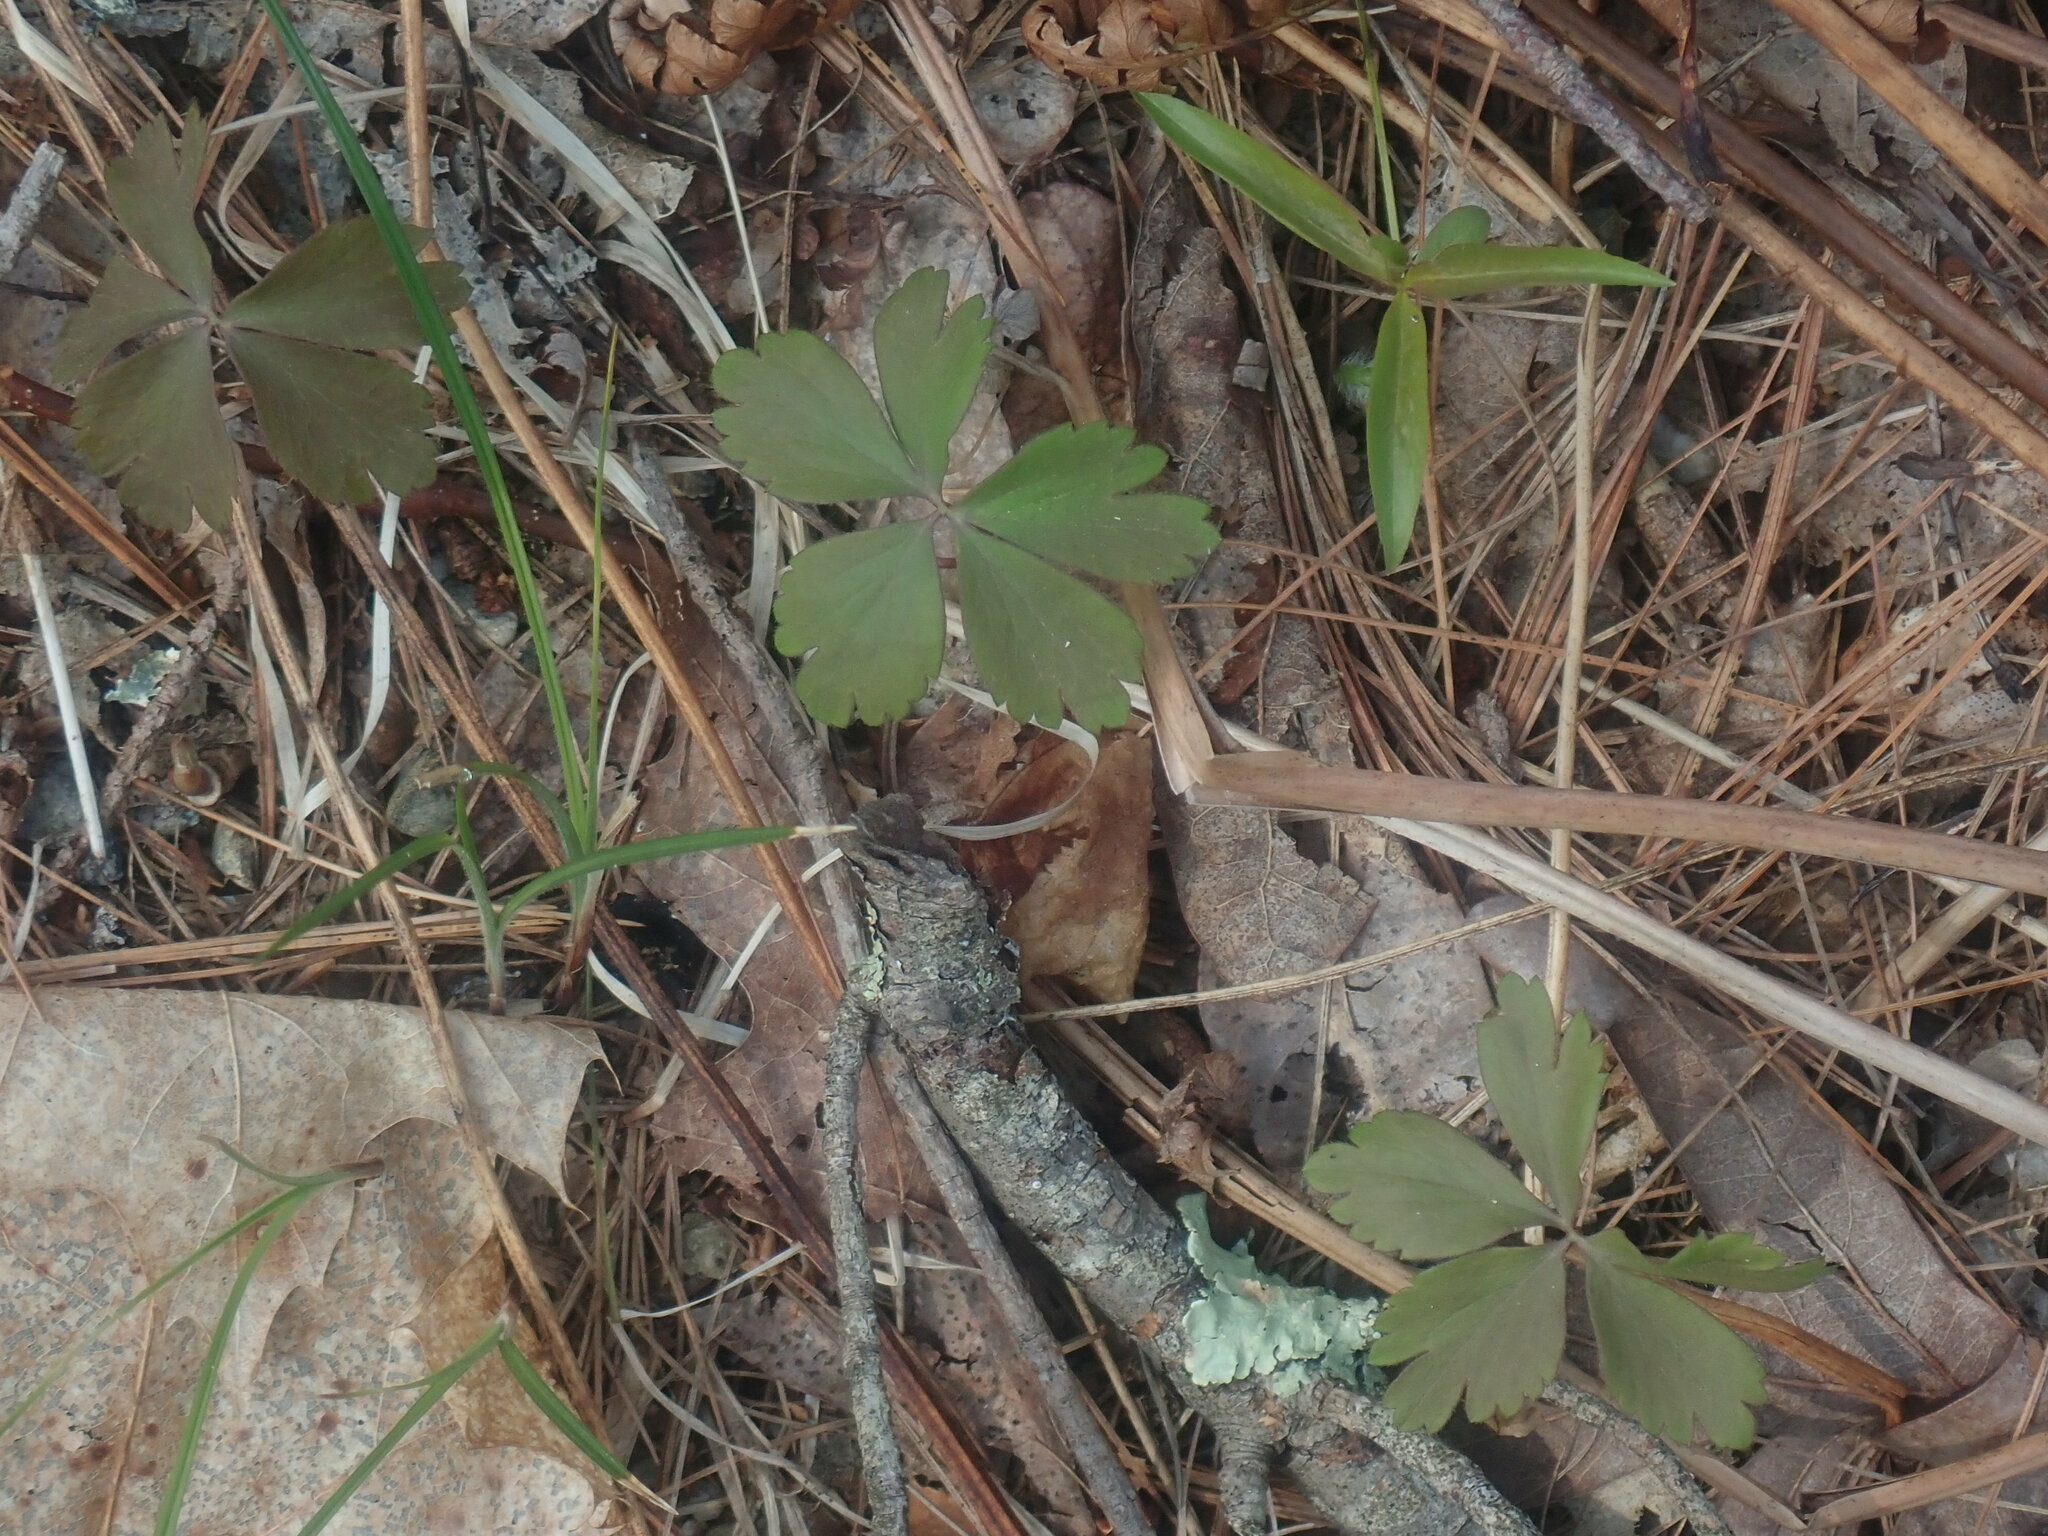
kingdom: Plantae
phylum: Tracheophyta
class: Magnoliopsida
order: Ranunculales
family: Ranunculaceae
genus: Anemone
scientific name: Anemone quinquefolia
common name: Wood anemone
